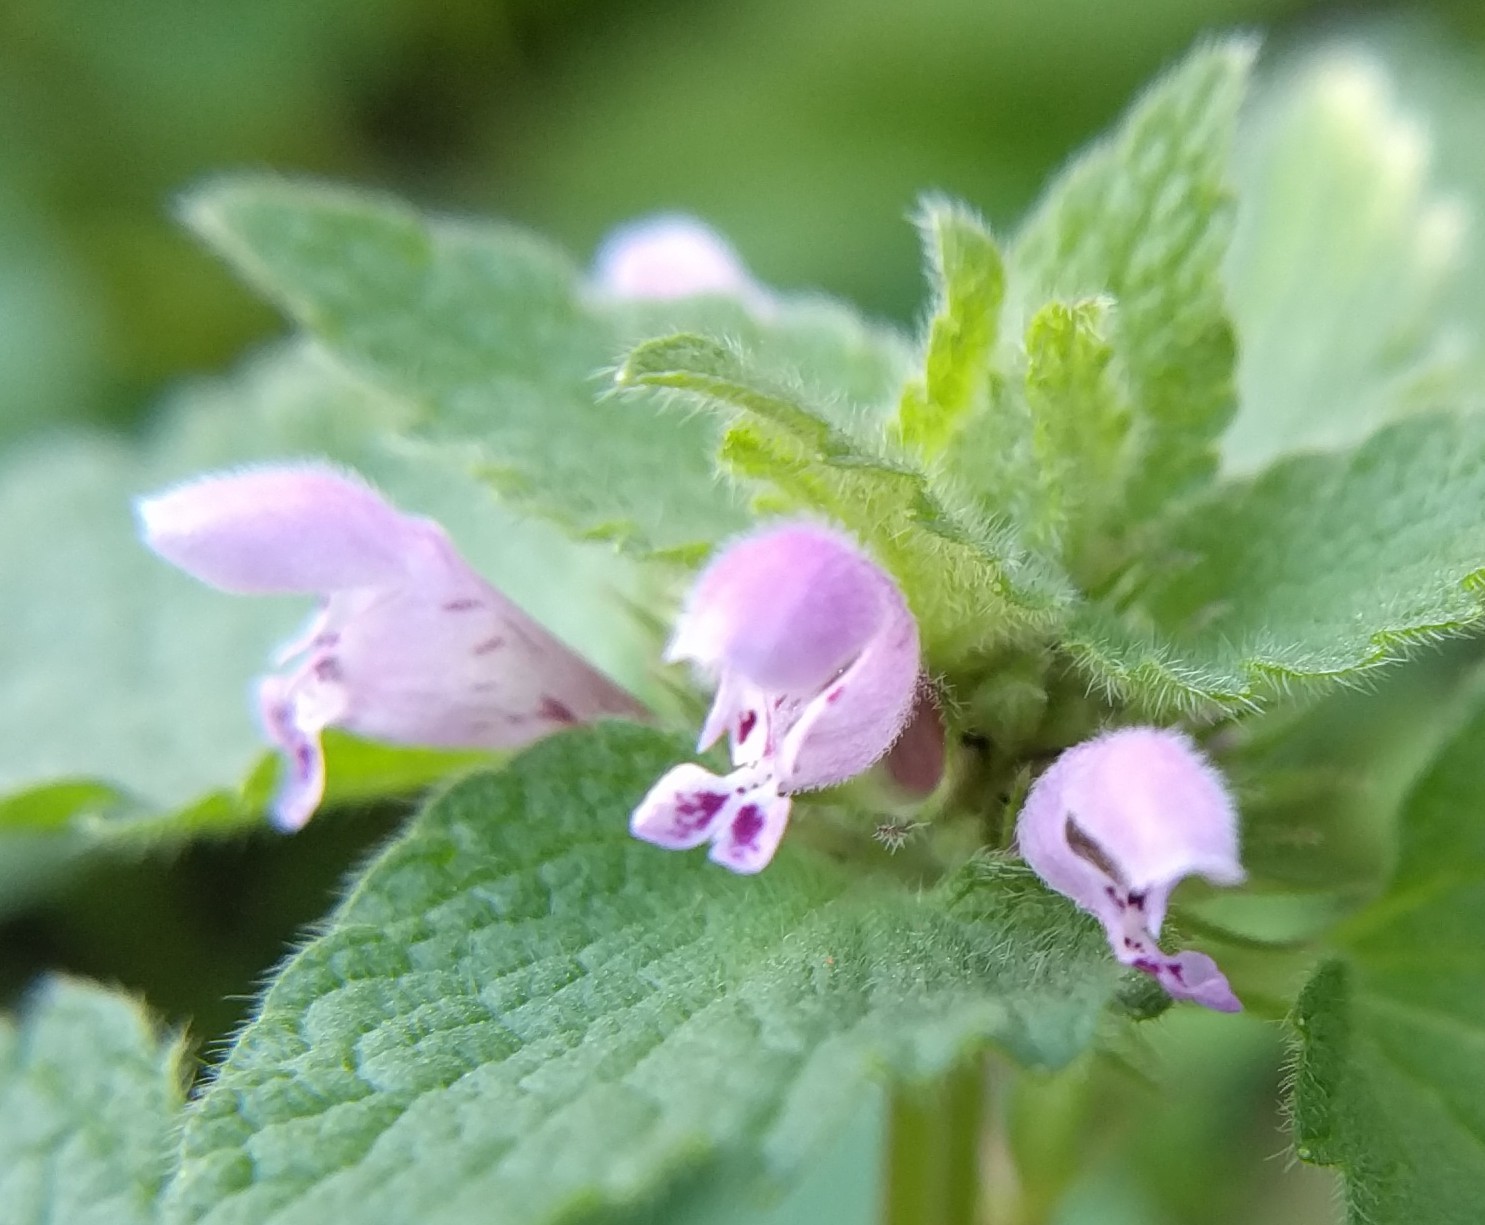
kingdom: Plantae
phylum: Tracheophyta
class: Magnoliopsida
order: Lamiales
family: Lamiaceae
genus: Lamium
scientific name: Lamium purpureum
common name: Red dead-nettle
